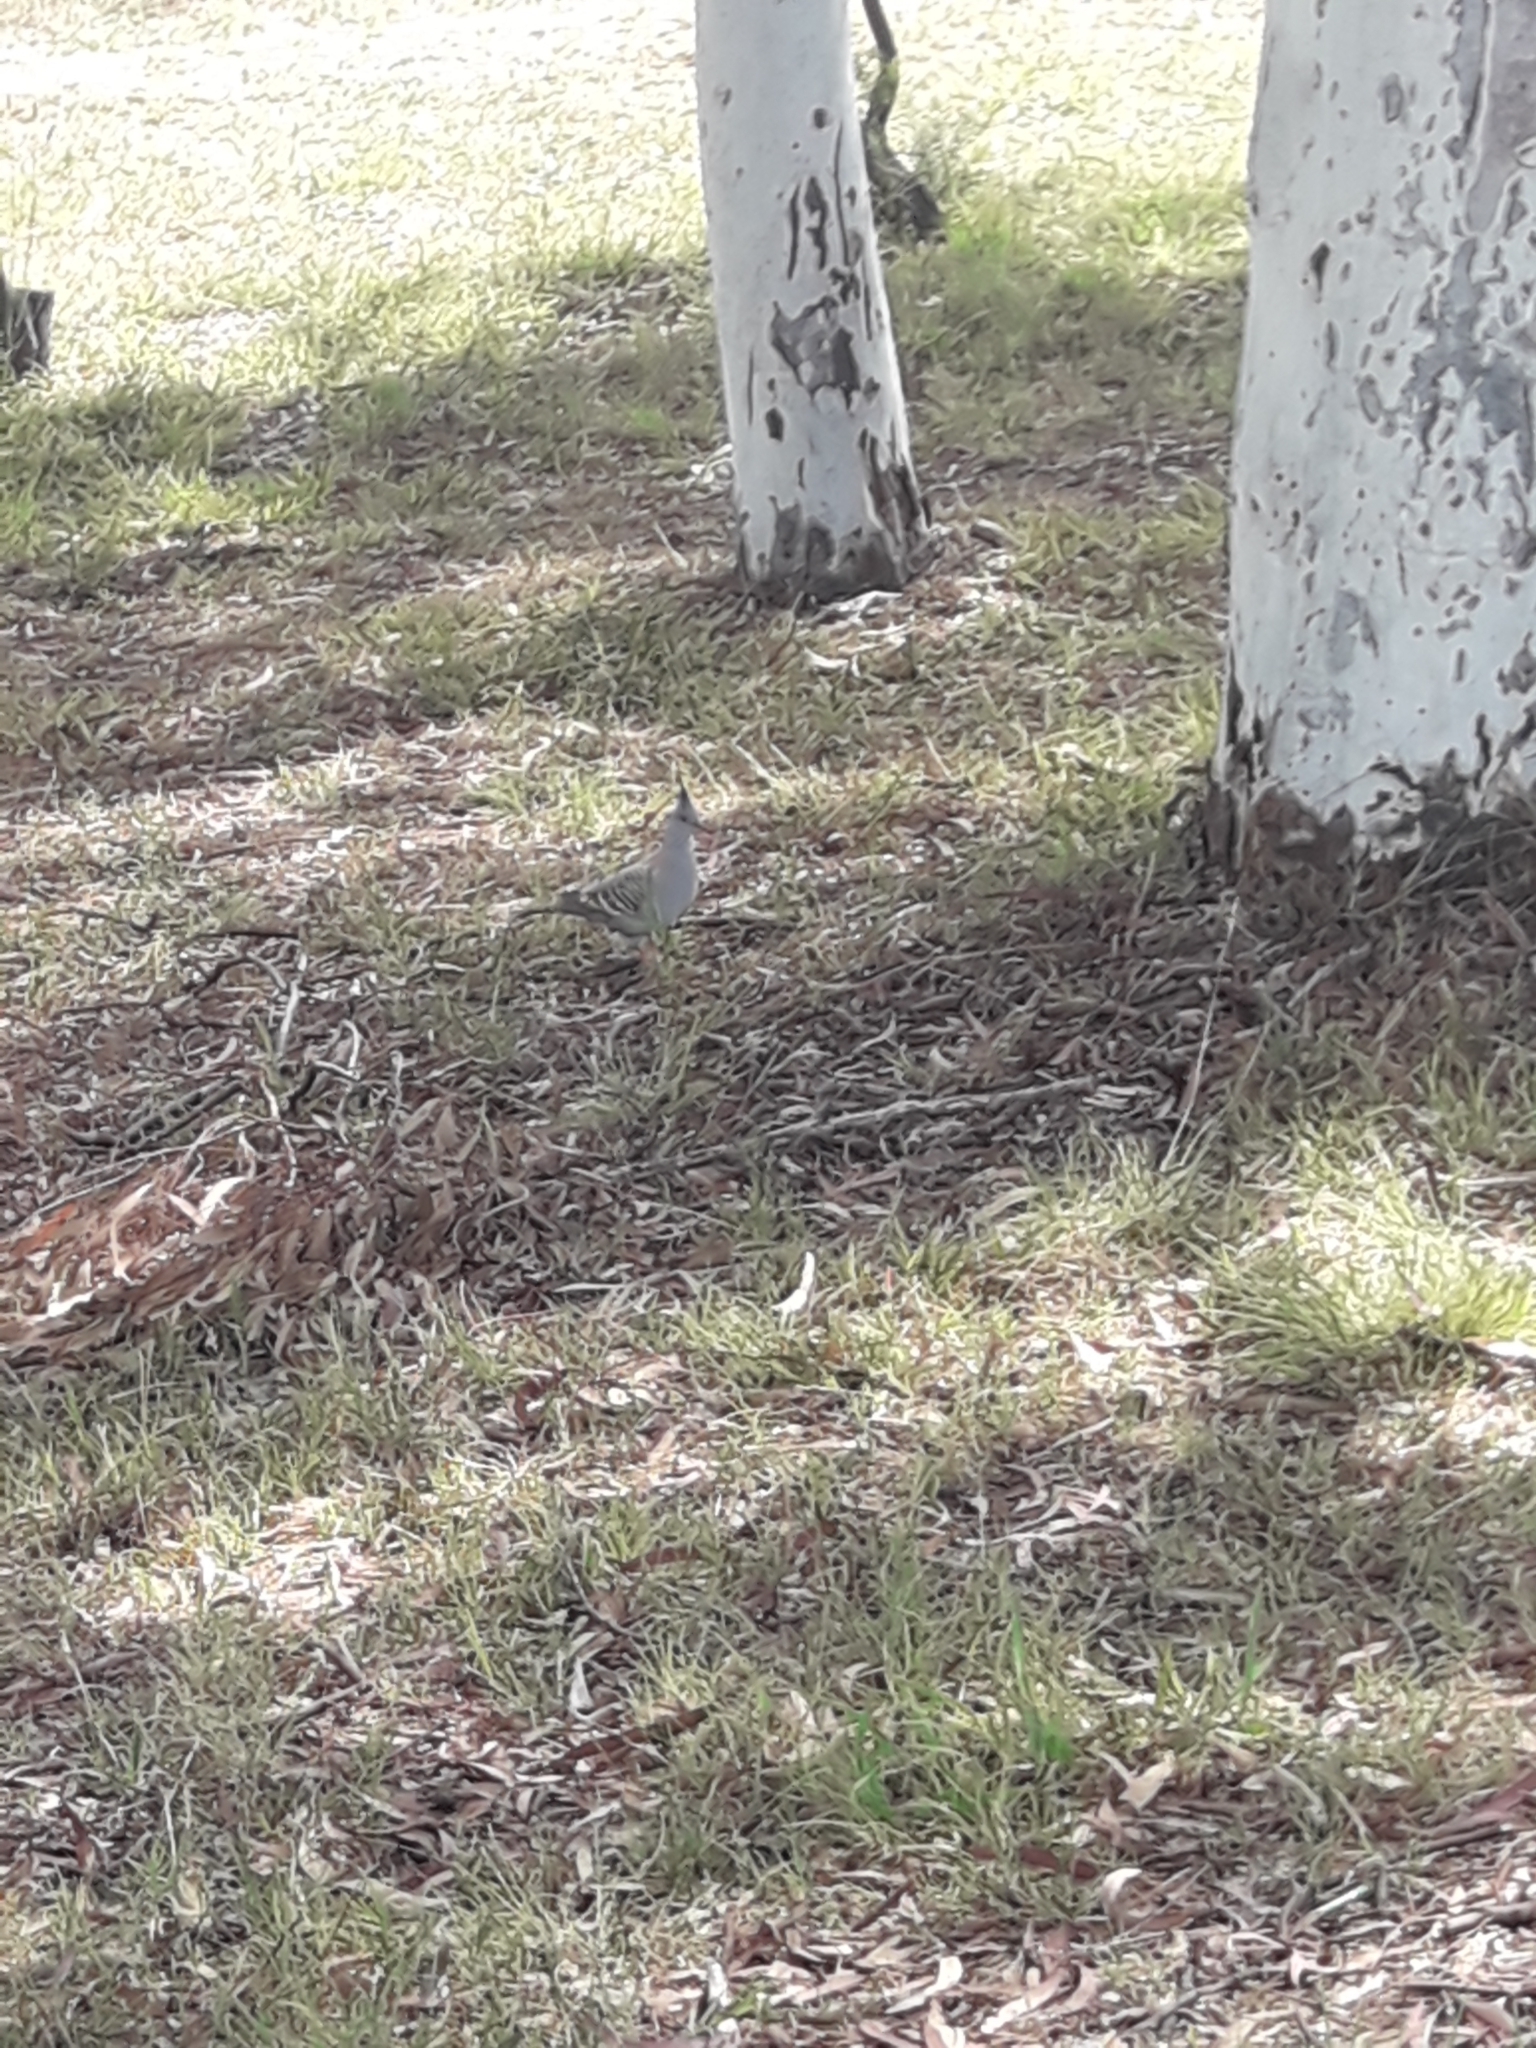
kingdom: Animalia
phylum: Chordata
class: Aves
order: Columbiformes
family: Columbidae
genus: Ocyphaps
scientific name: Ocyphaps lophotes
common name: Crested pigeon
